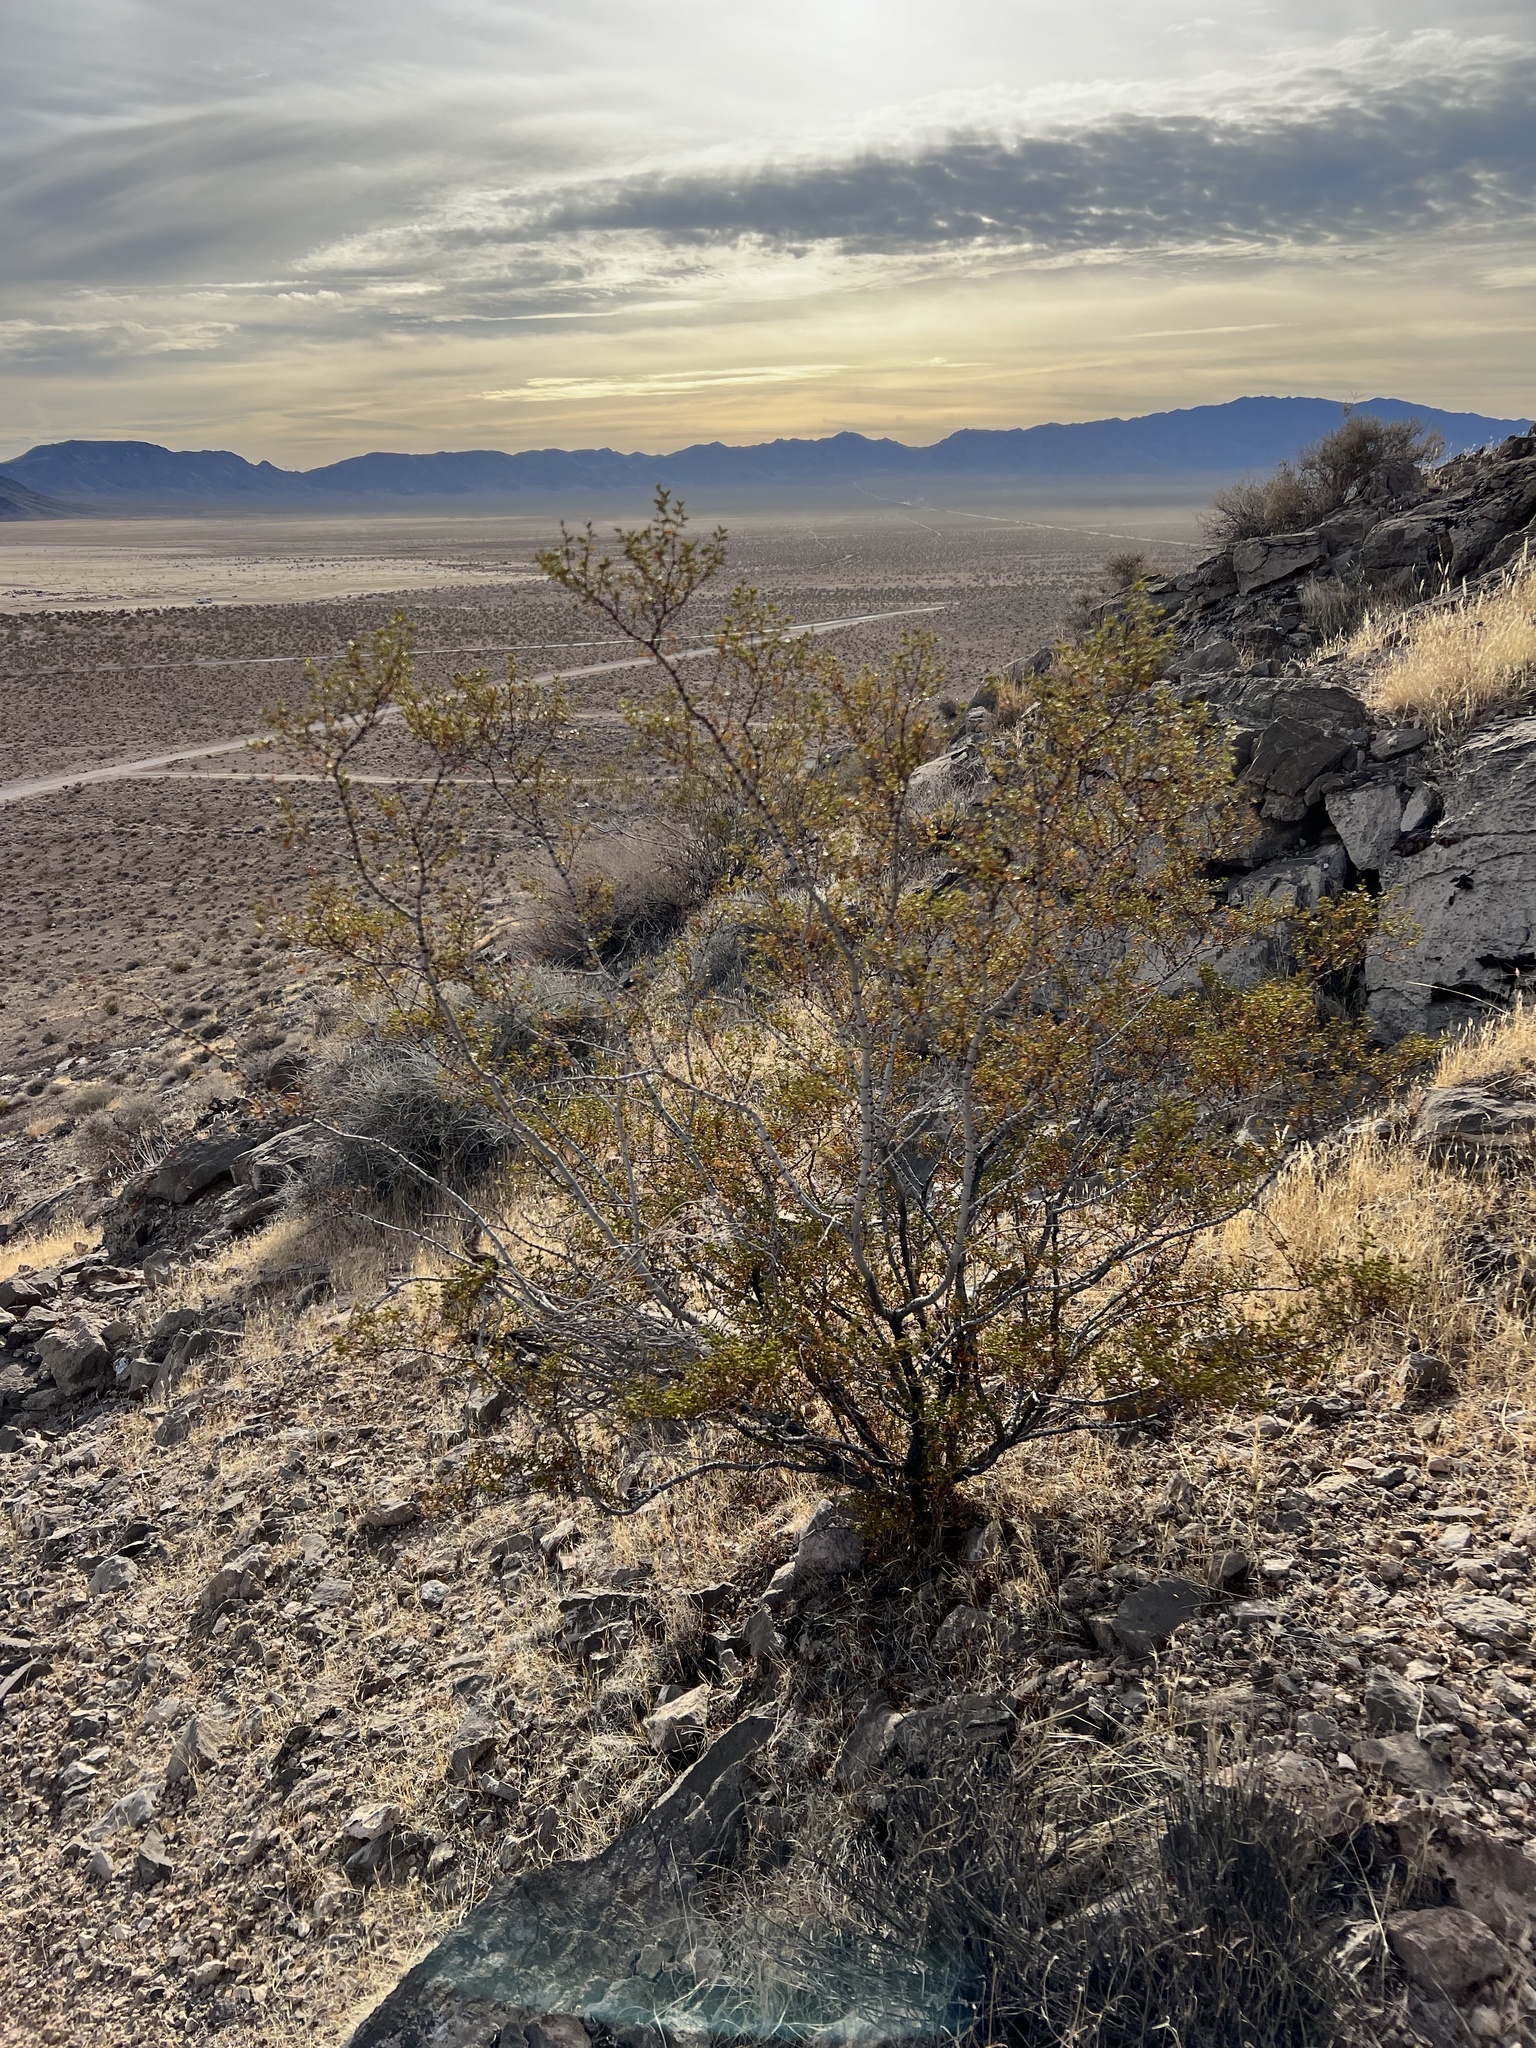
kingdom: Plantae
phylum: Tracheophyta
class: Magnoliopsida
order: Zygophyllales
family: Zygophyllaceae
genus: Larrea
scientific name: Larrea tridentata
